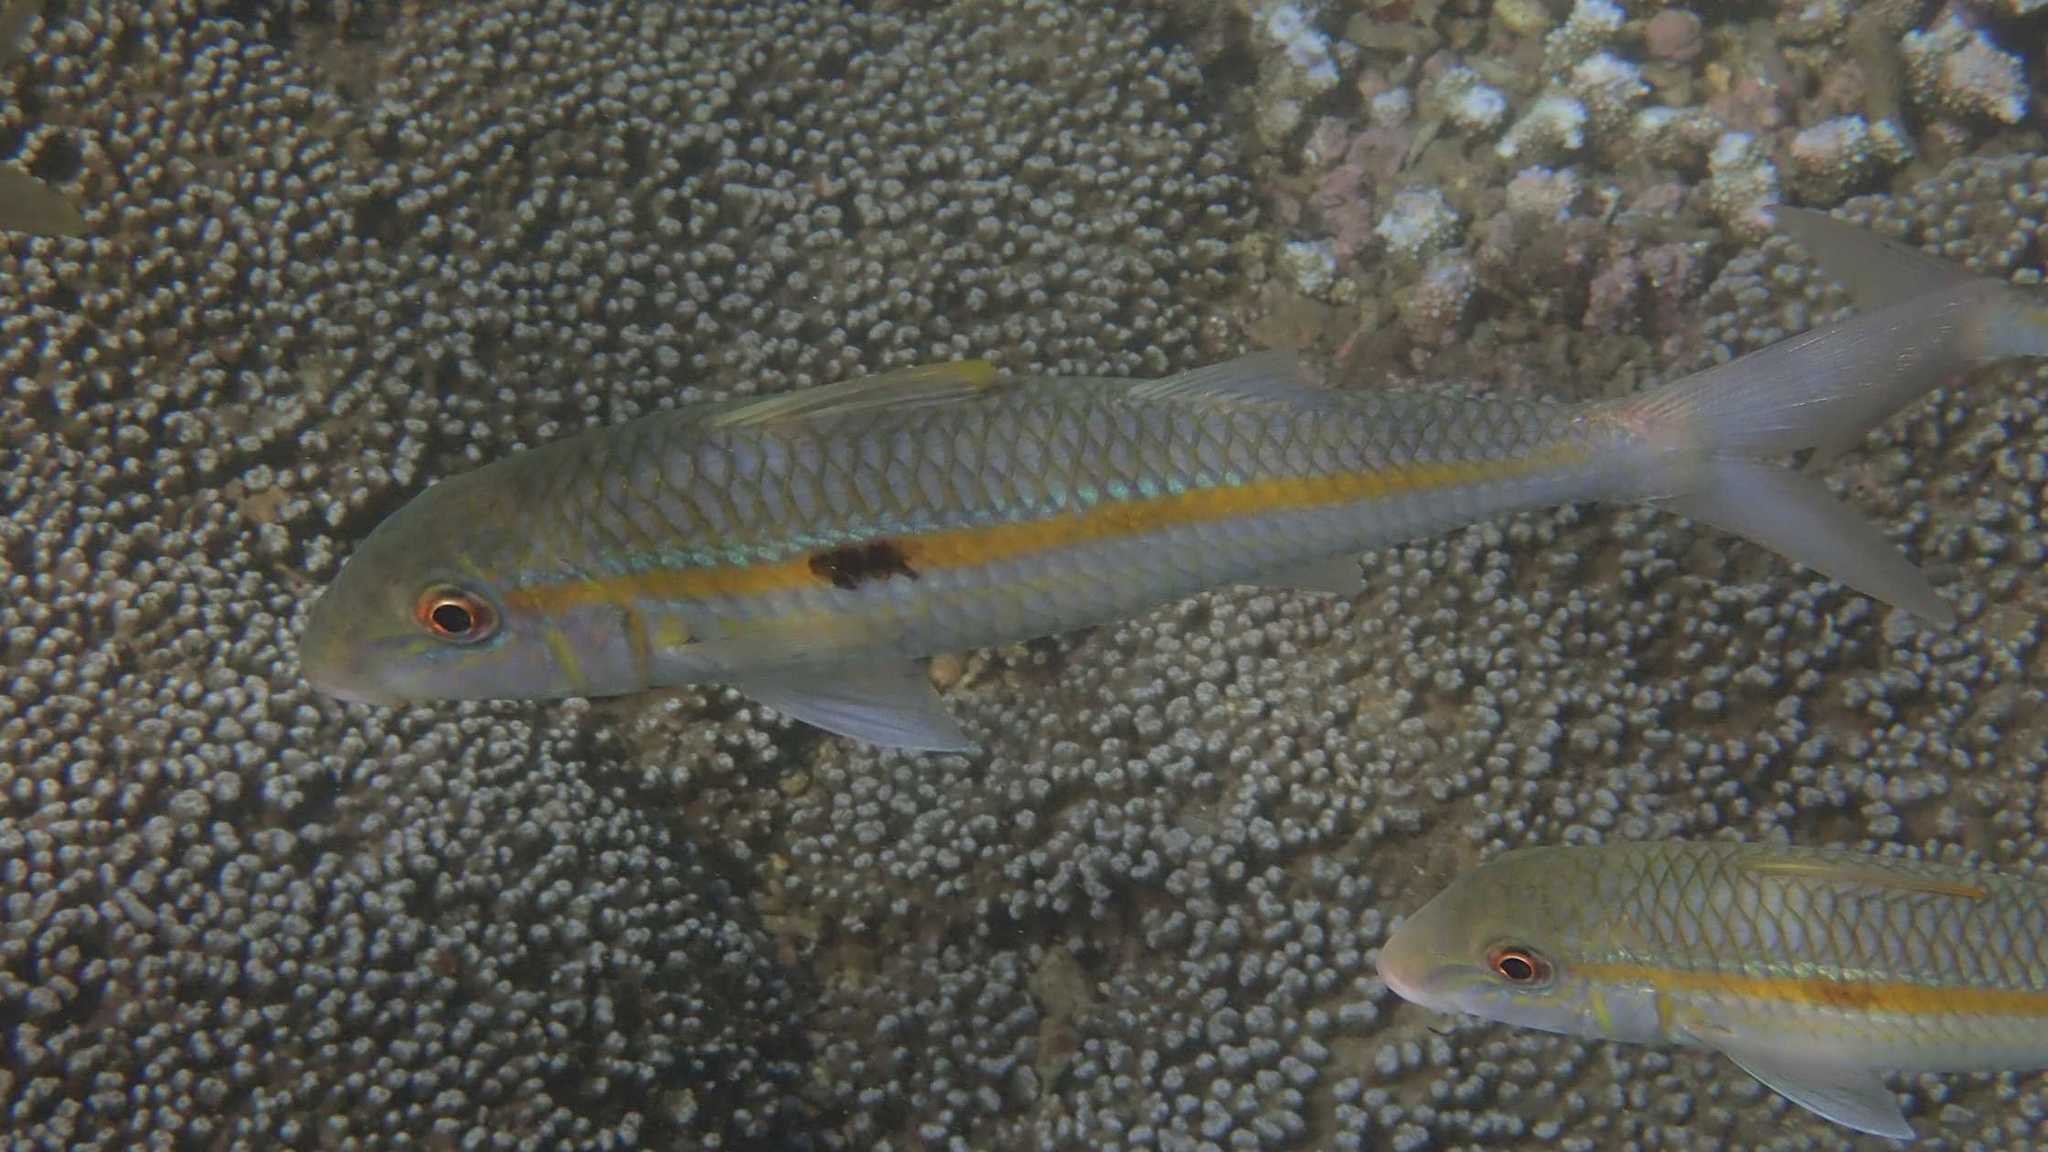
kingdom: Animalia
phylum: Chordata
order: Perciformes
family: Mullidae
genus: Mulloidichthys
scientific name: Mulloidichthys flavolineatus
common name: Yellowstripe goatfish
